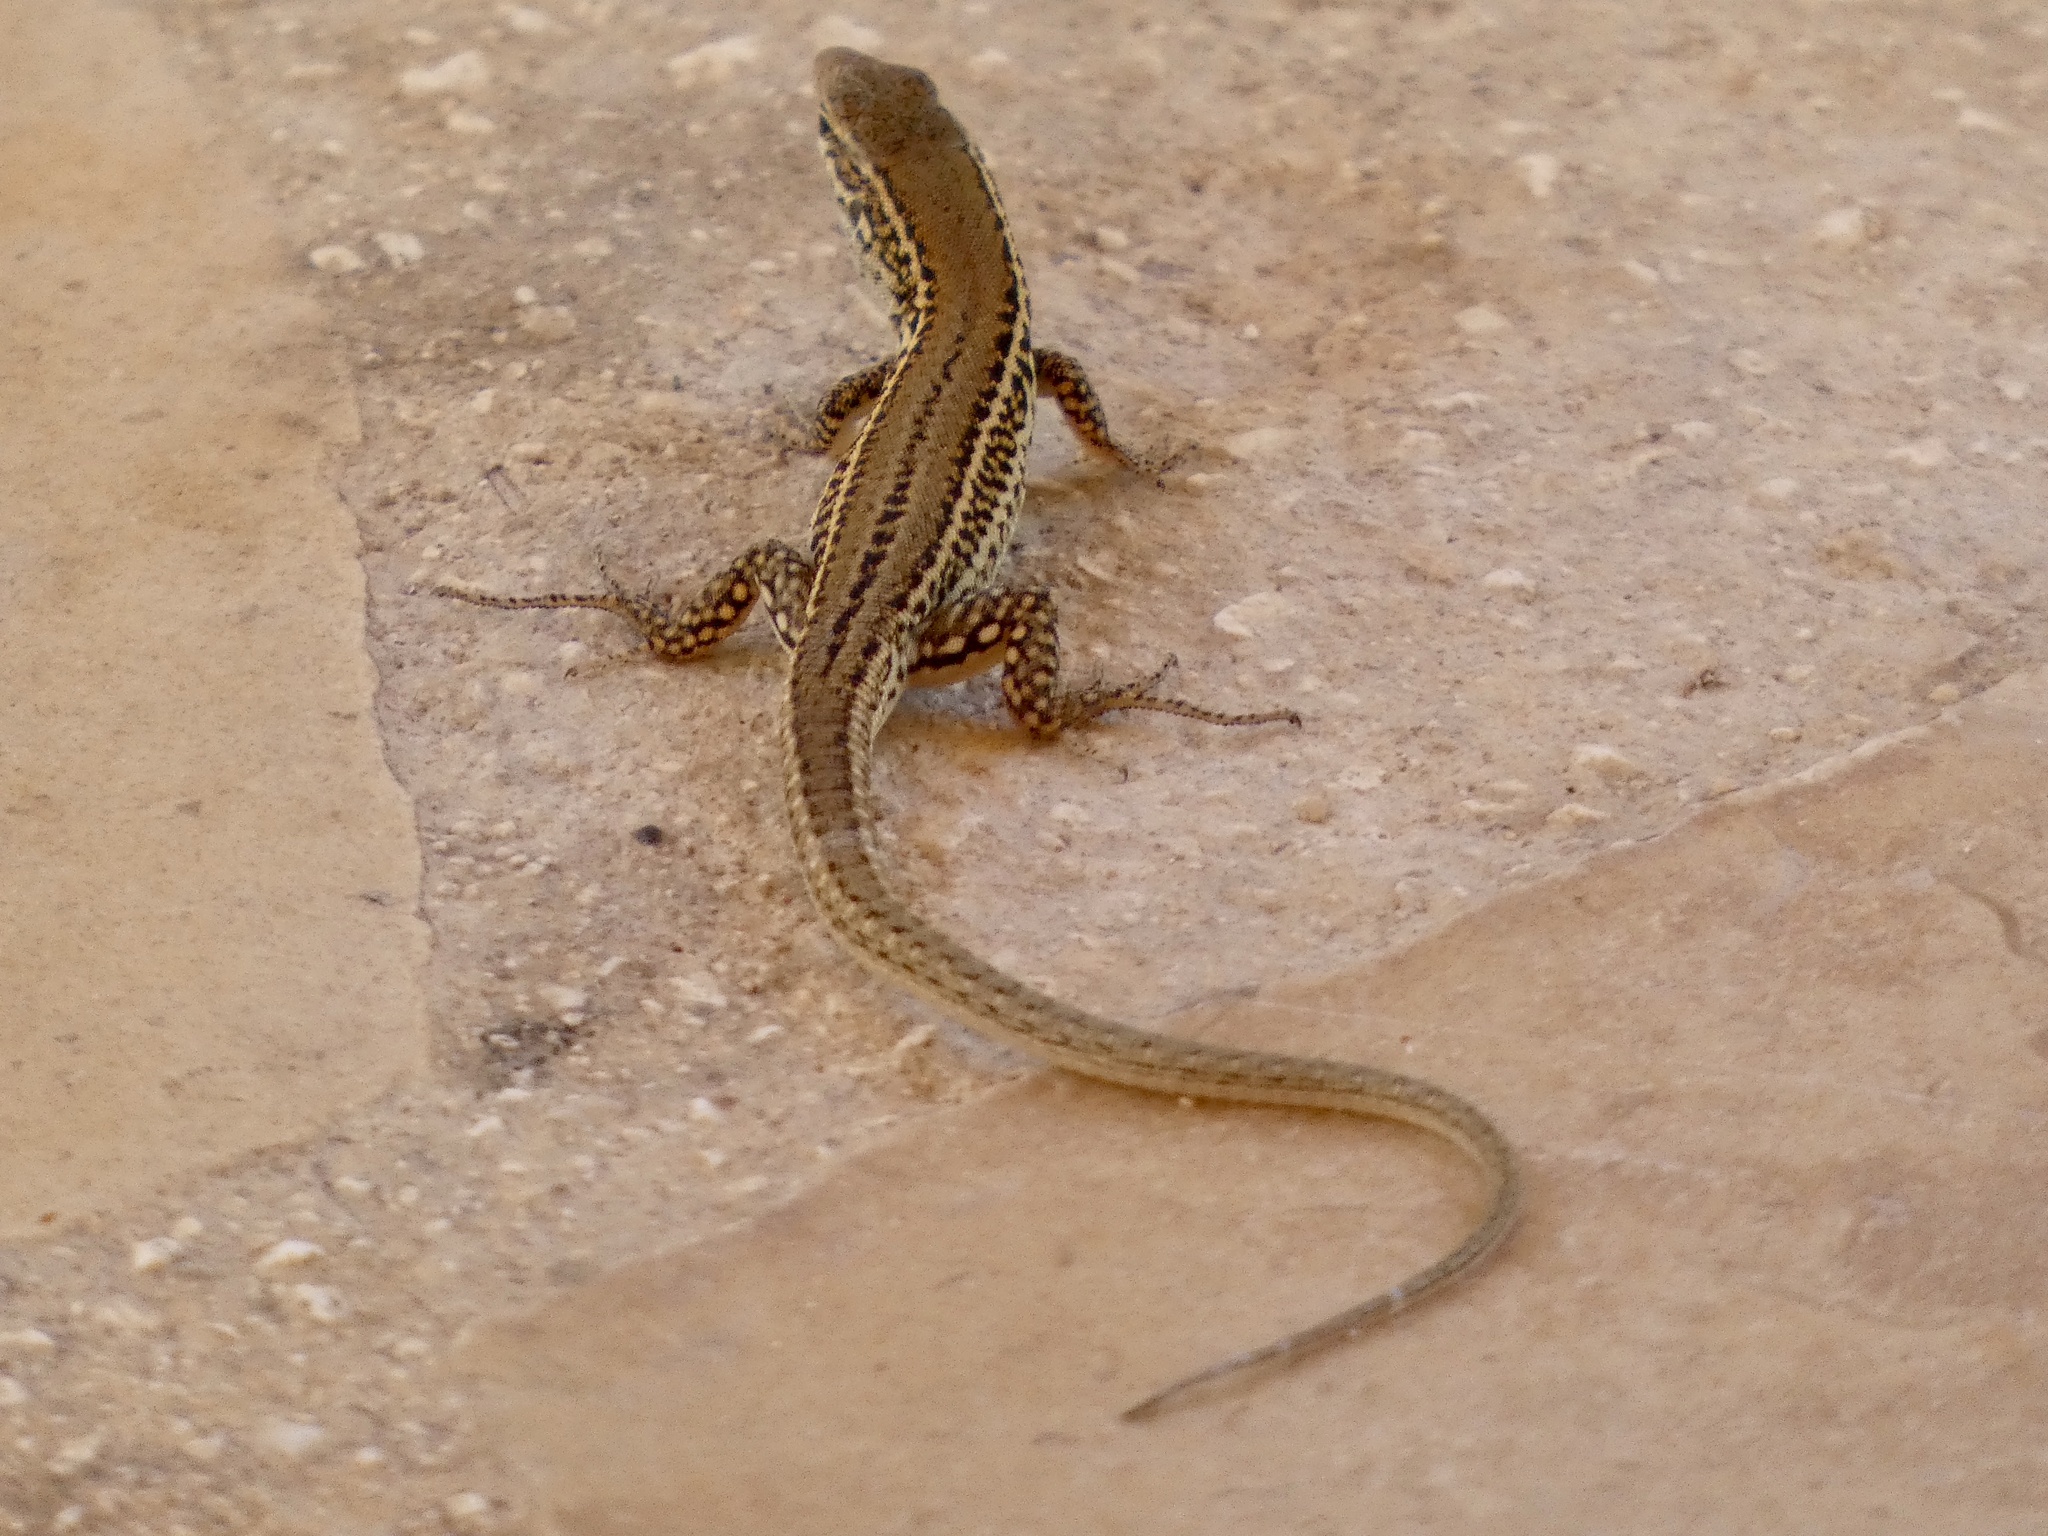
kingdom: Animalia
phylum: Chordata
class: Squamata
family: Lacertidae
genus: Podarcis
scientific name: Podarcis melisellensis
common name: Dalmatian wall lizard
